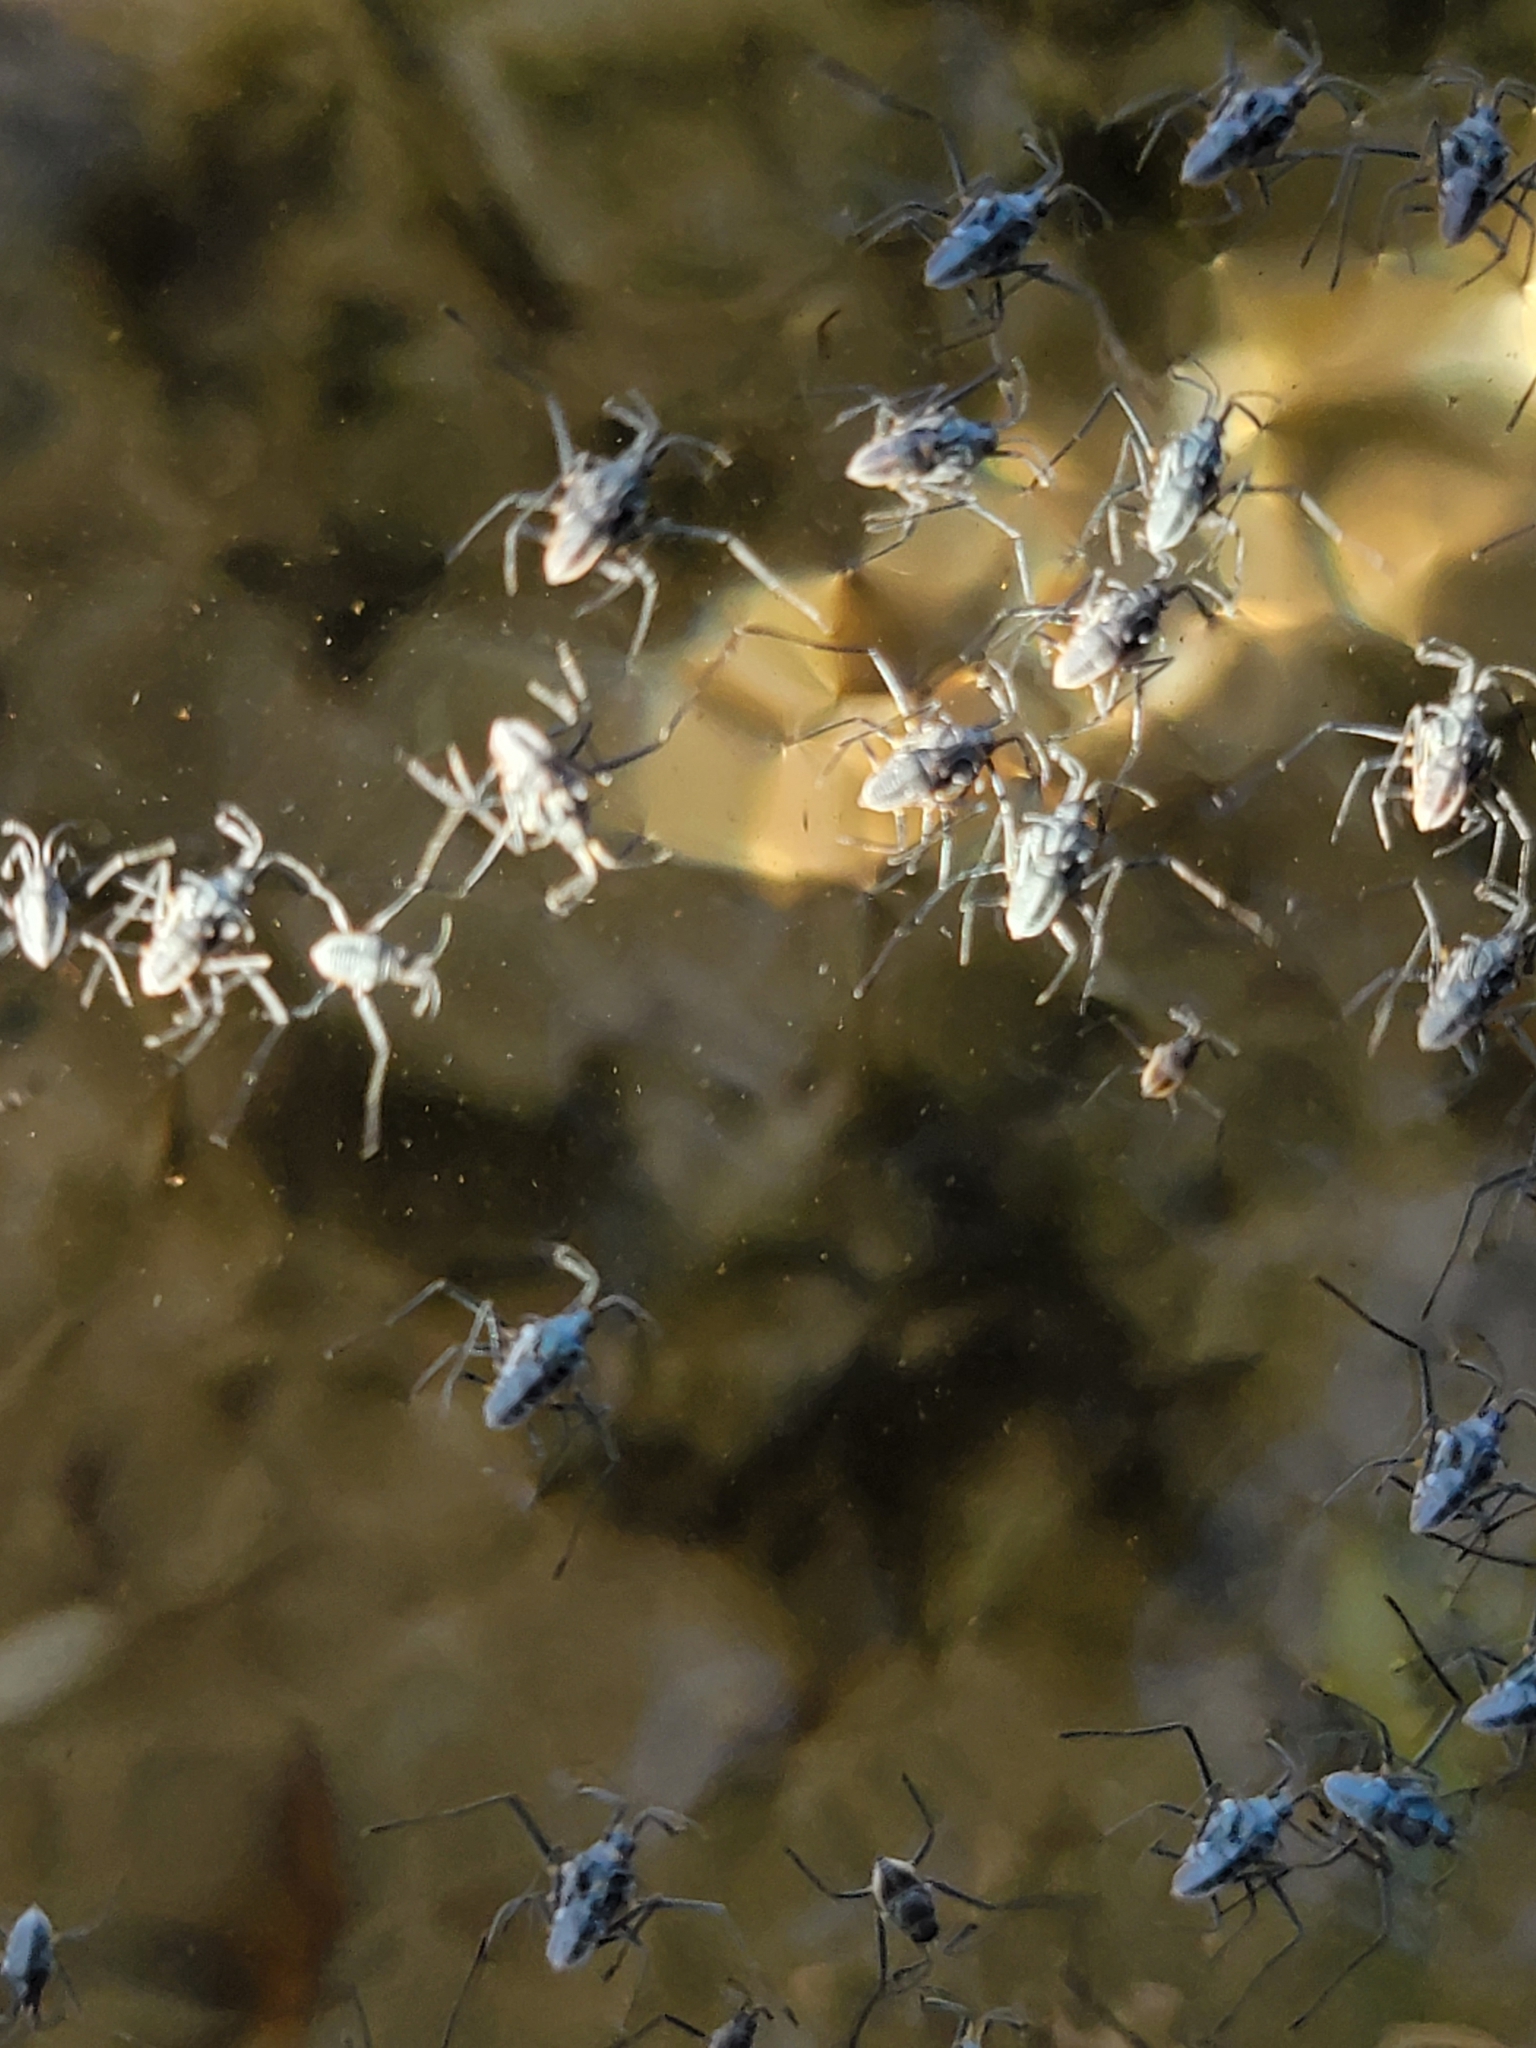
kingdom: Animalia
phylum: Arthropoda
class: Insecta
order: Hemiptera
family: Veliidae
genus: Rhagovelia
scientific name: Rhagovelia plumbea
